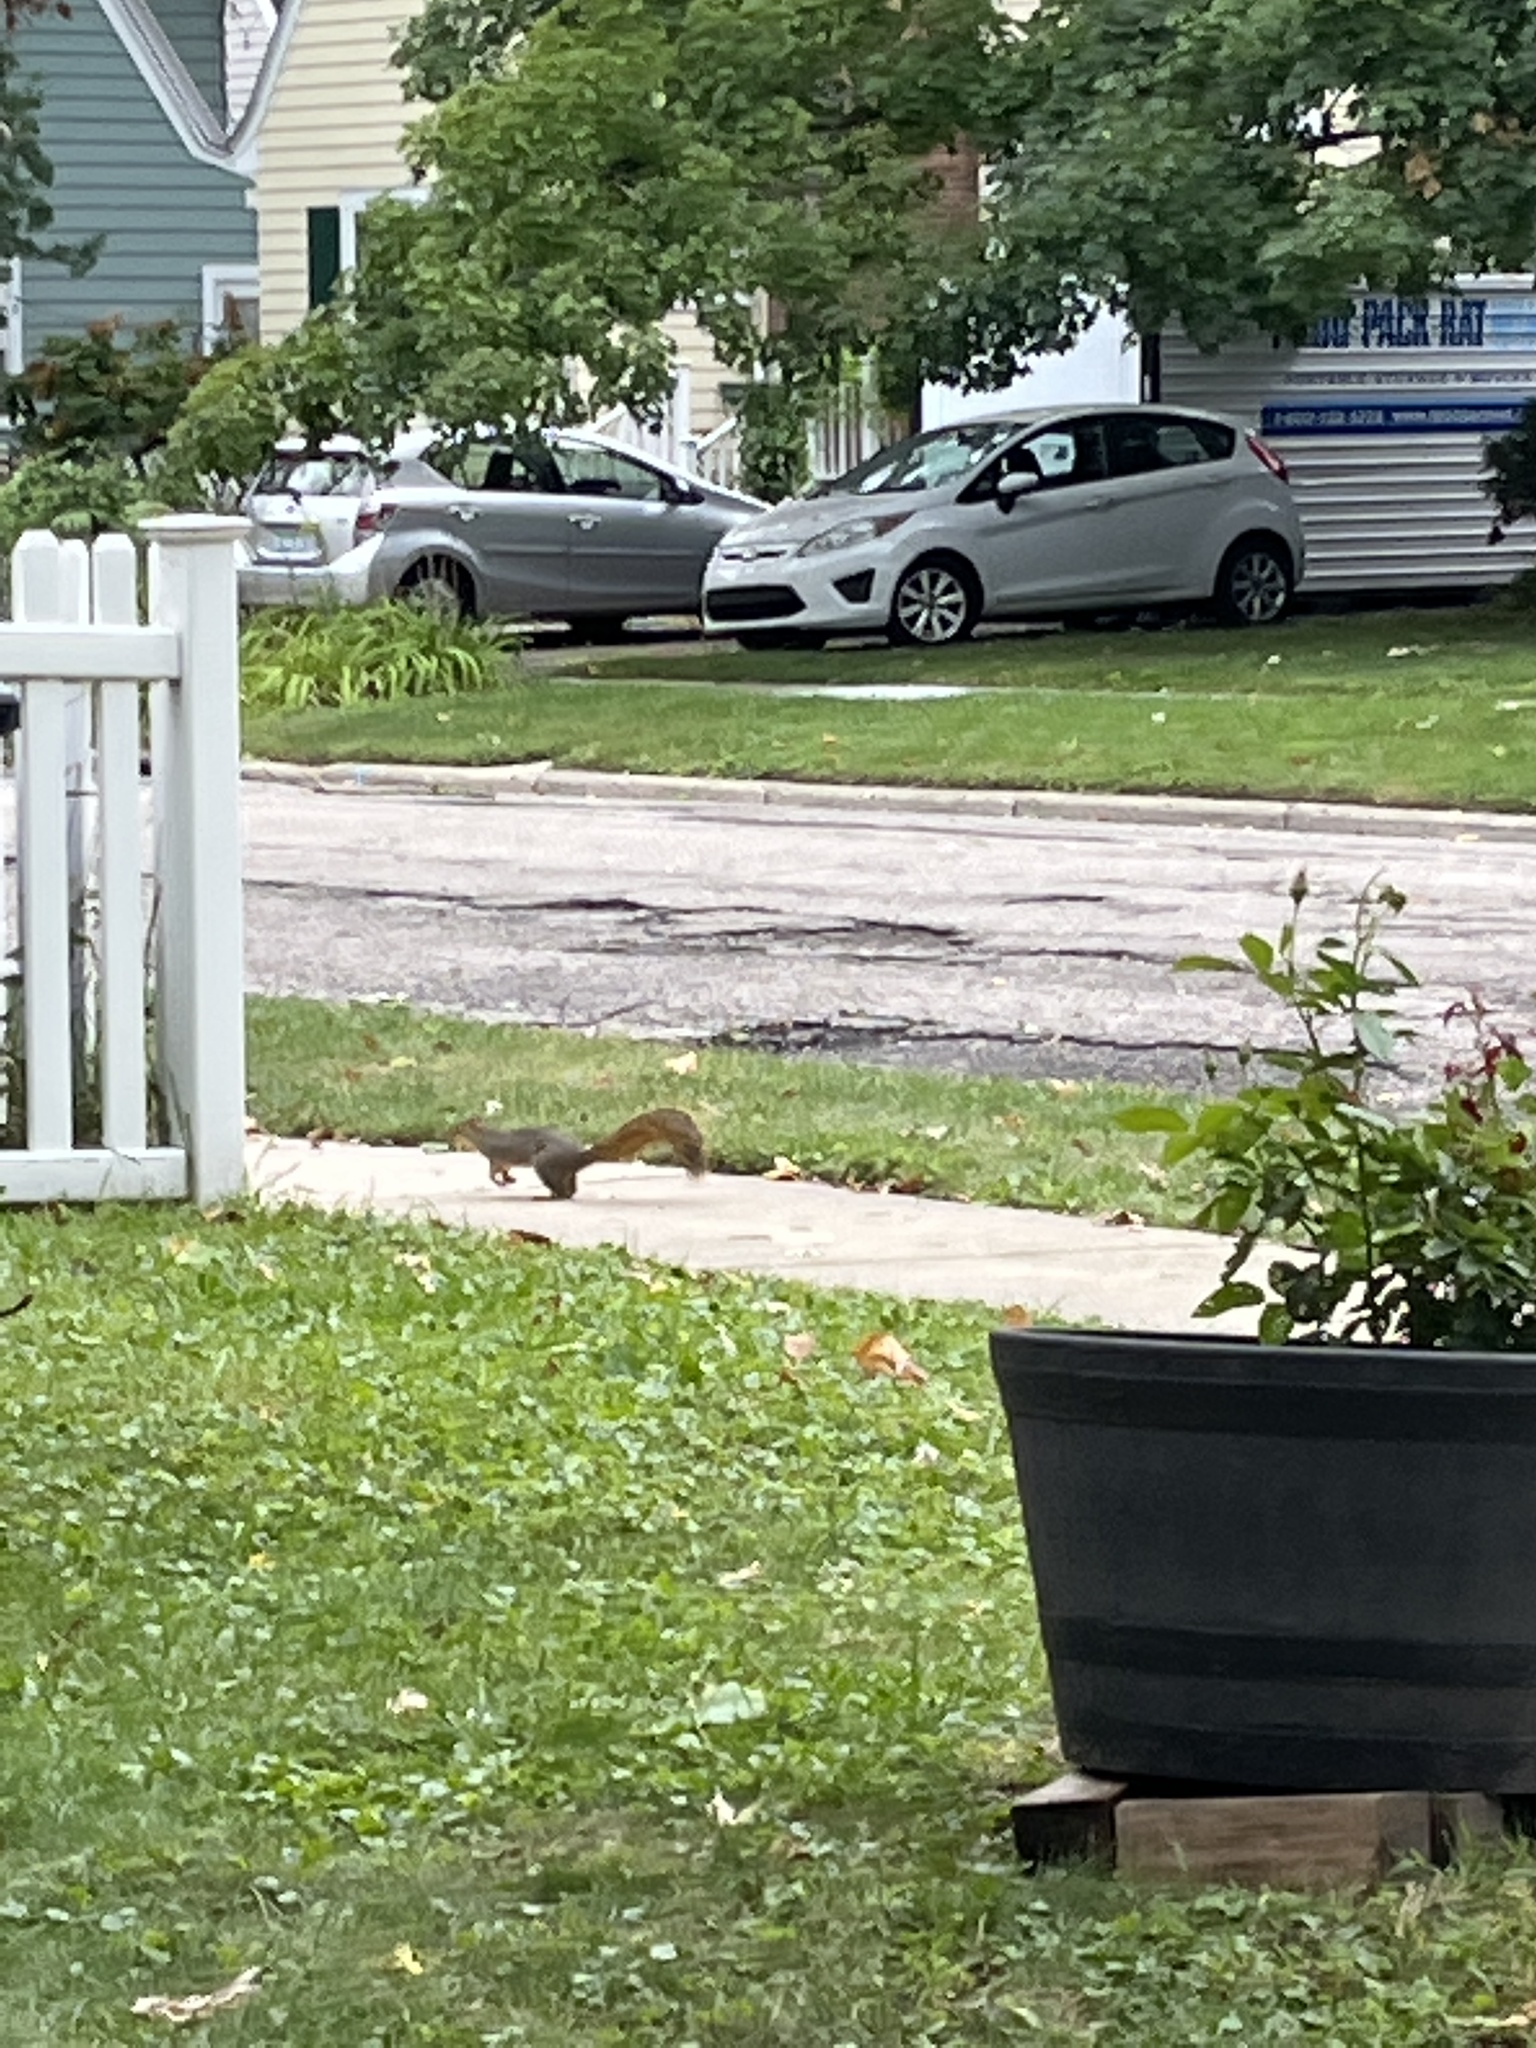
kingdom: Animalia
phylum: Chordata
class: Mammalia
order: Rodentia
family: Sciuridae
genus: Sciurus
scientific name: Sciurus niger
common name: Fox squirrel
